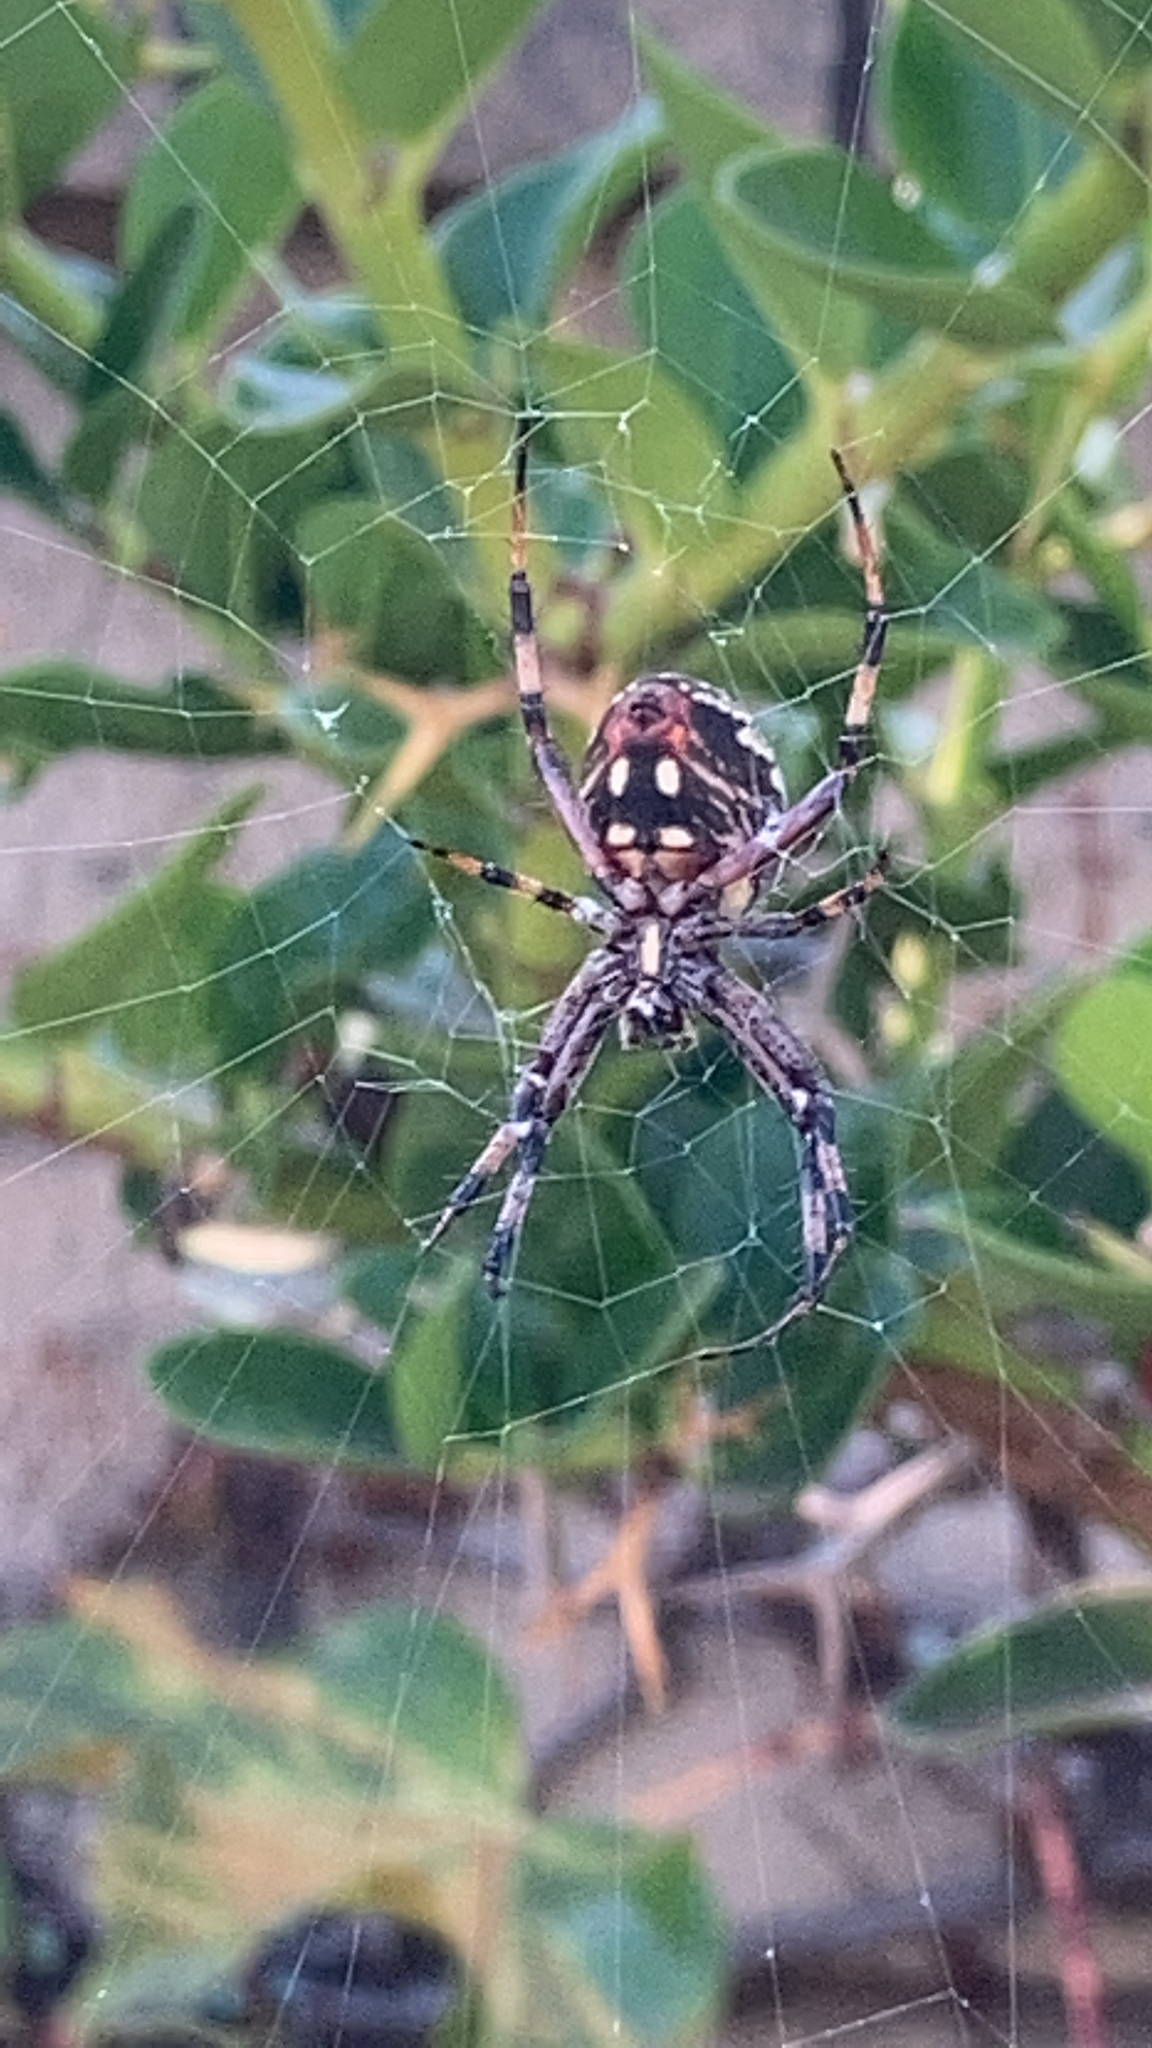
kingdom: Animalia
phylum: Arthropoda
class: Arachnida
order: Araneae
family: Araneidae
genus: Neoscona
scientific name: Neoscona oaxacensis
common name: Orb weavers
